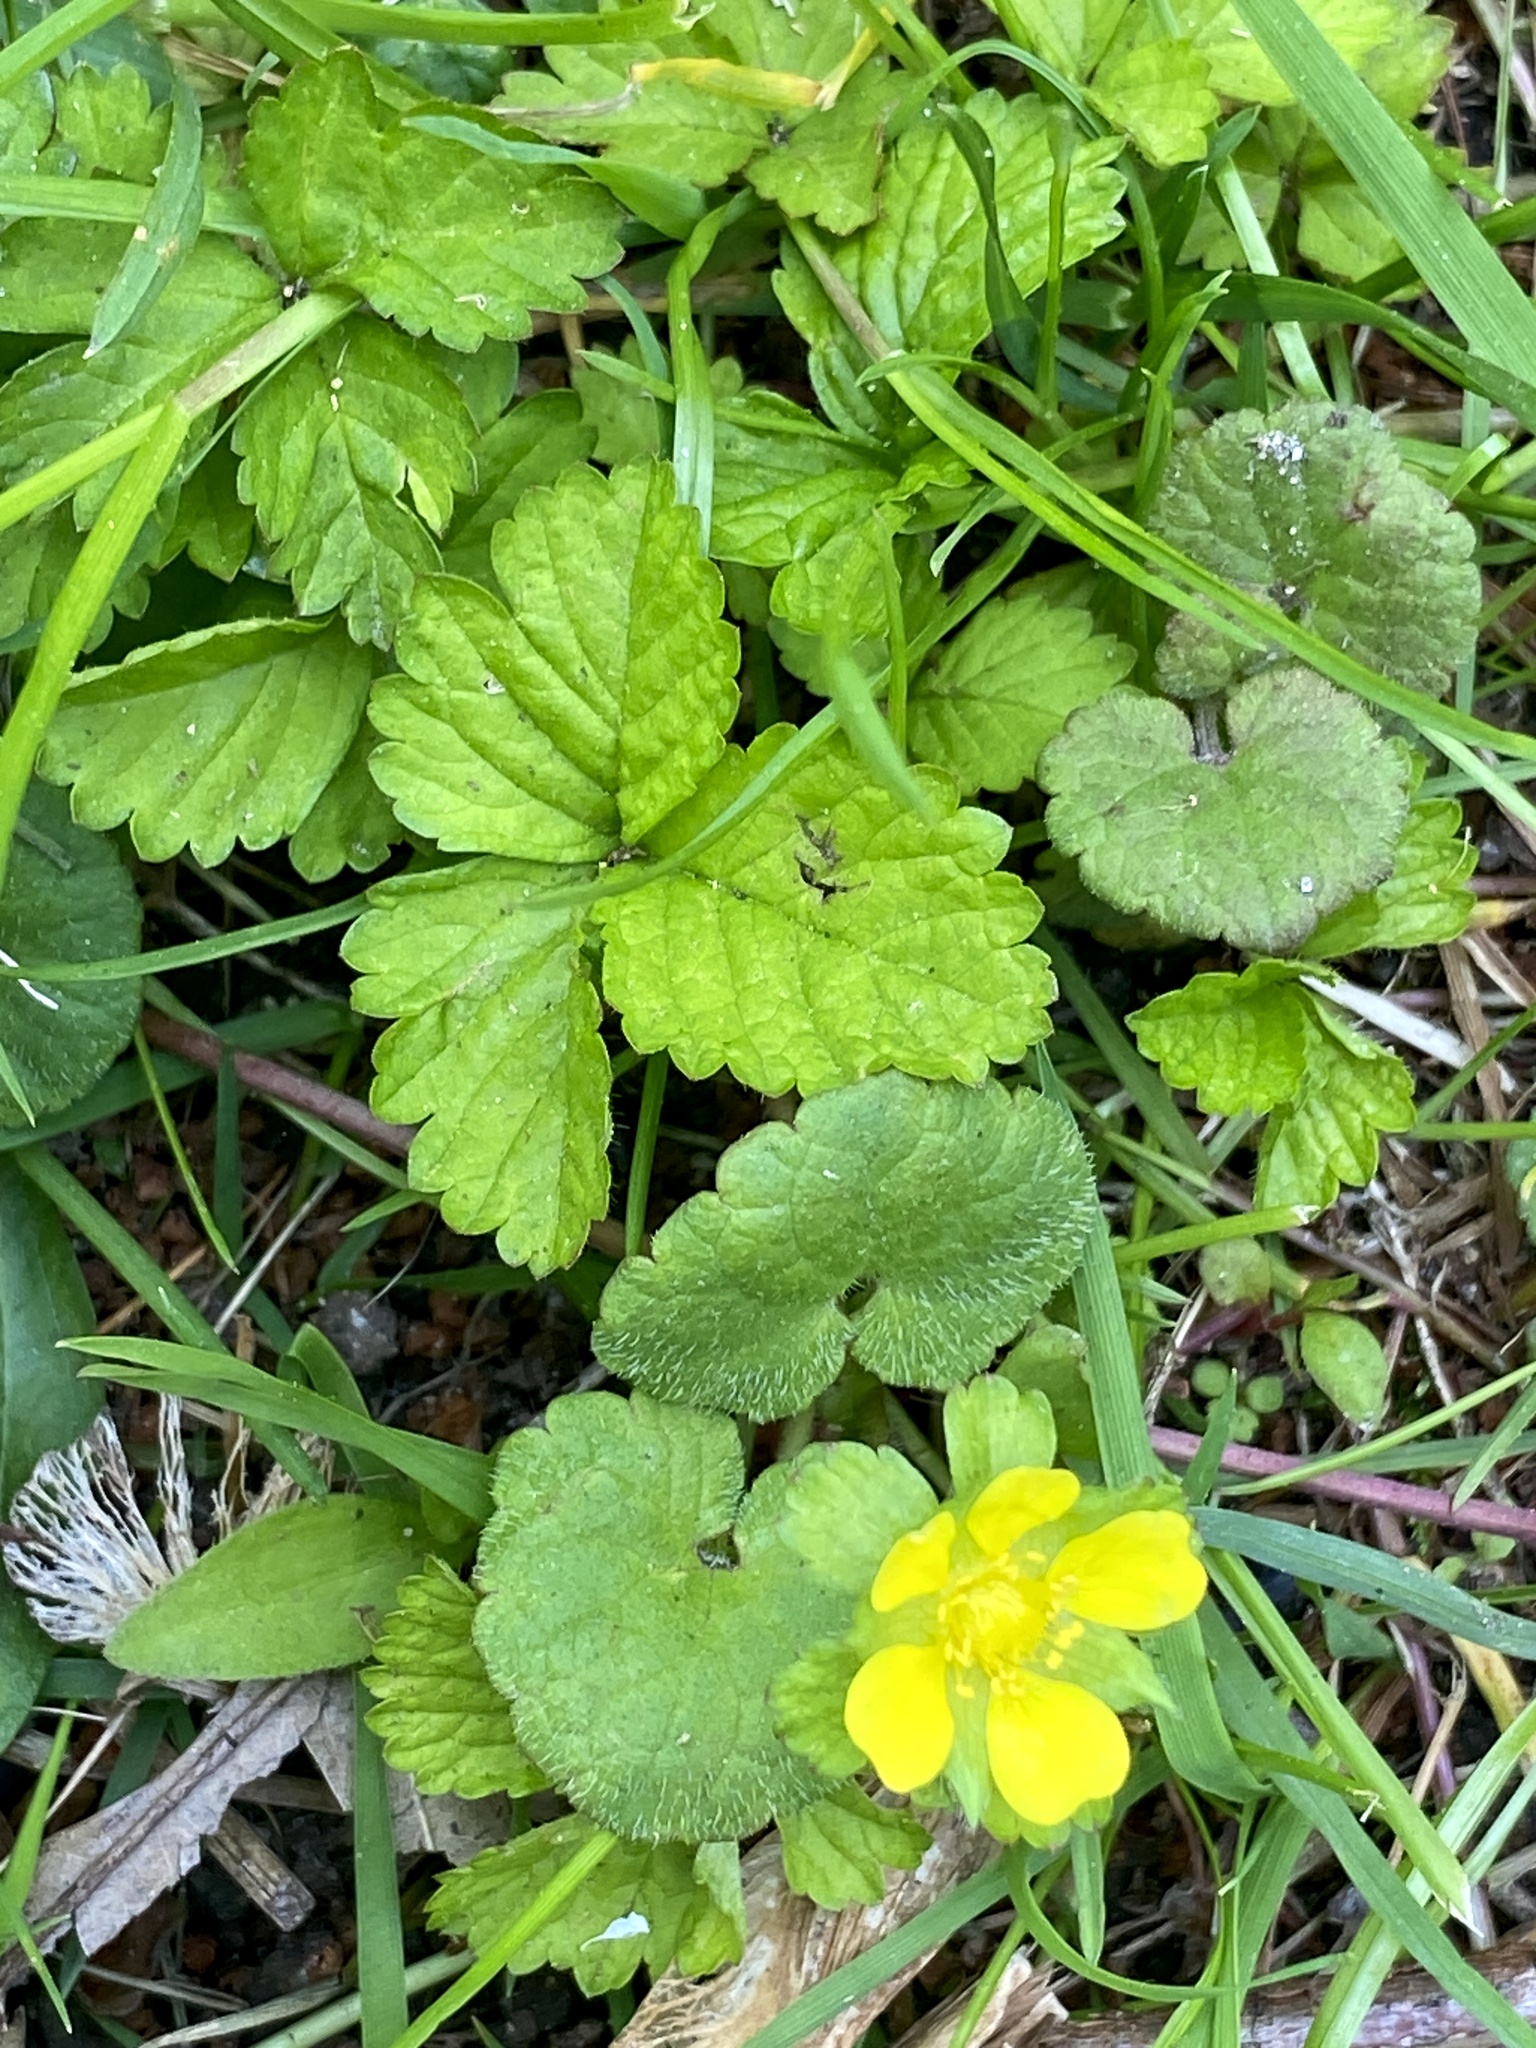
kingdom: Plantae
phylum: Tracheophyta
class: Magnoliopsida
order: Rosales
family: Rosaceae
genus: Potentilla
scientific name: Potentilla indica
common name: Yellow-flowered strawberry
